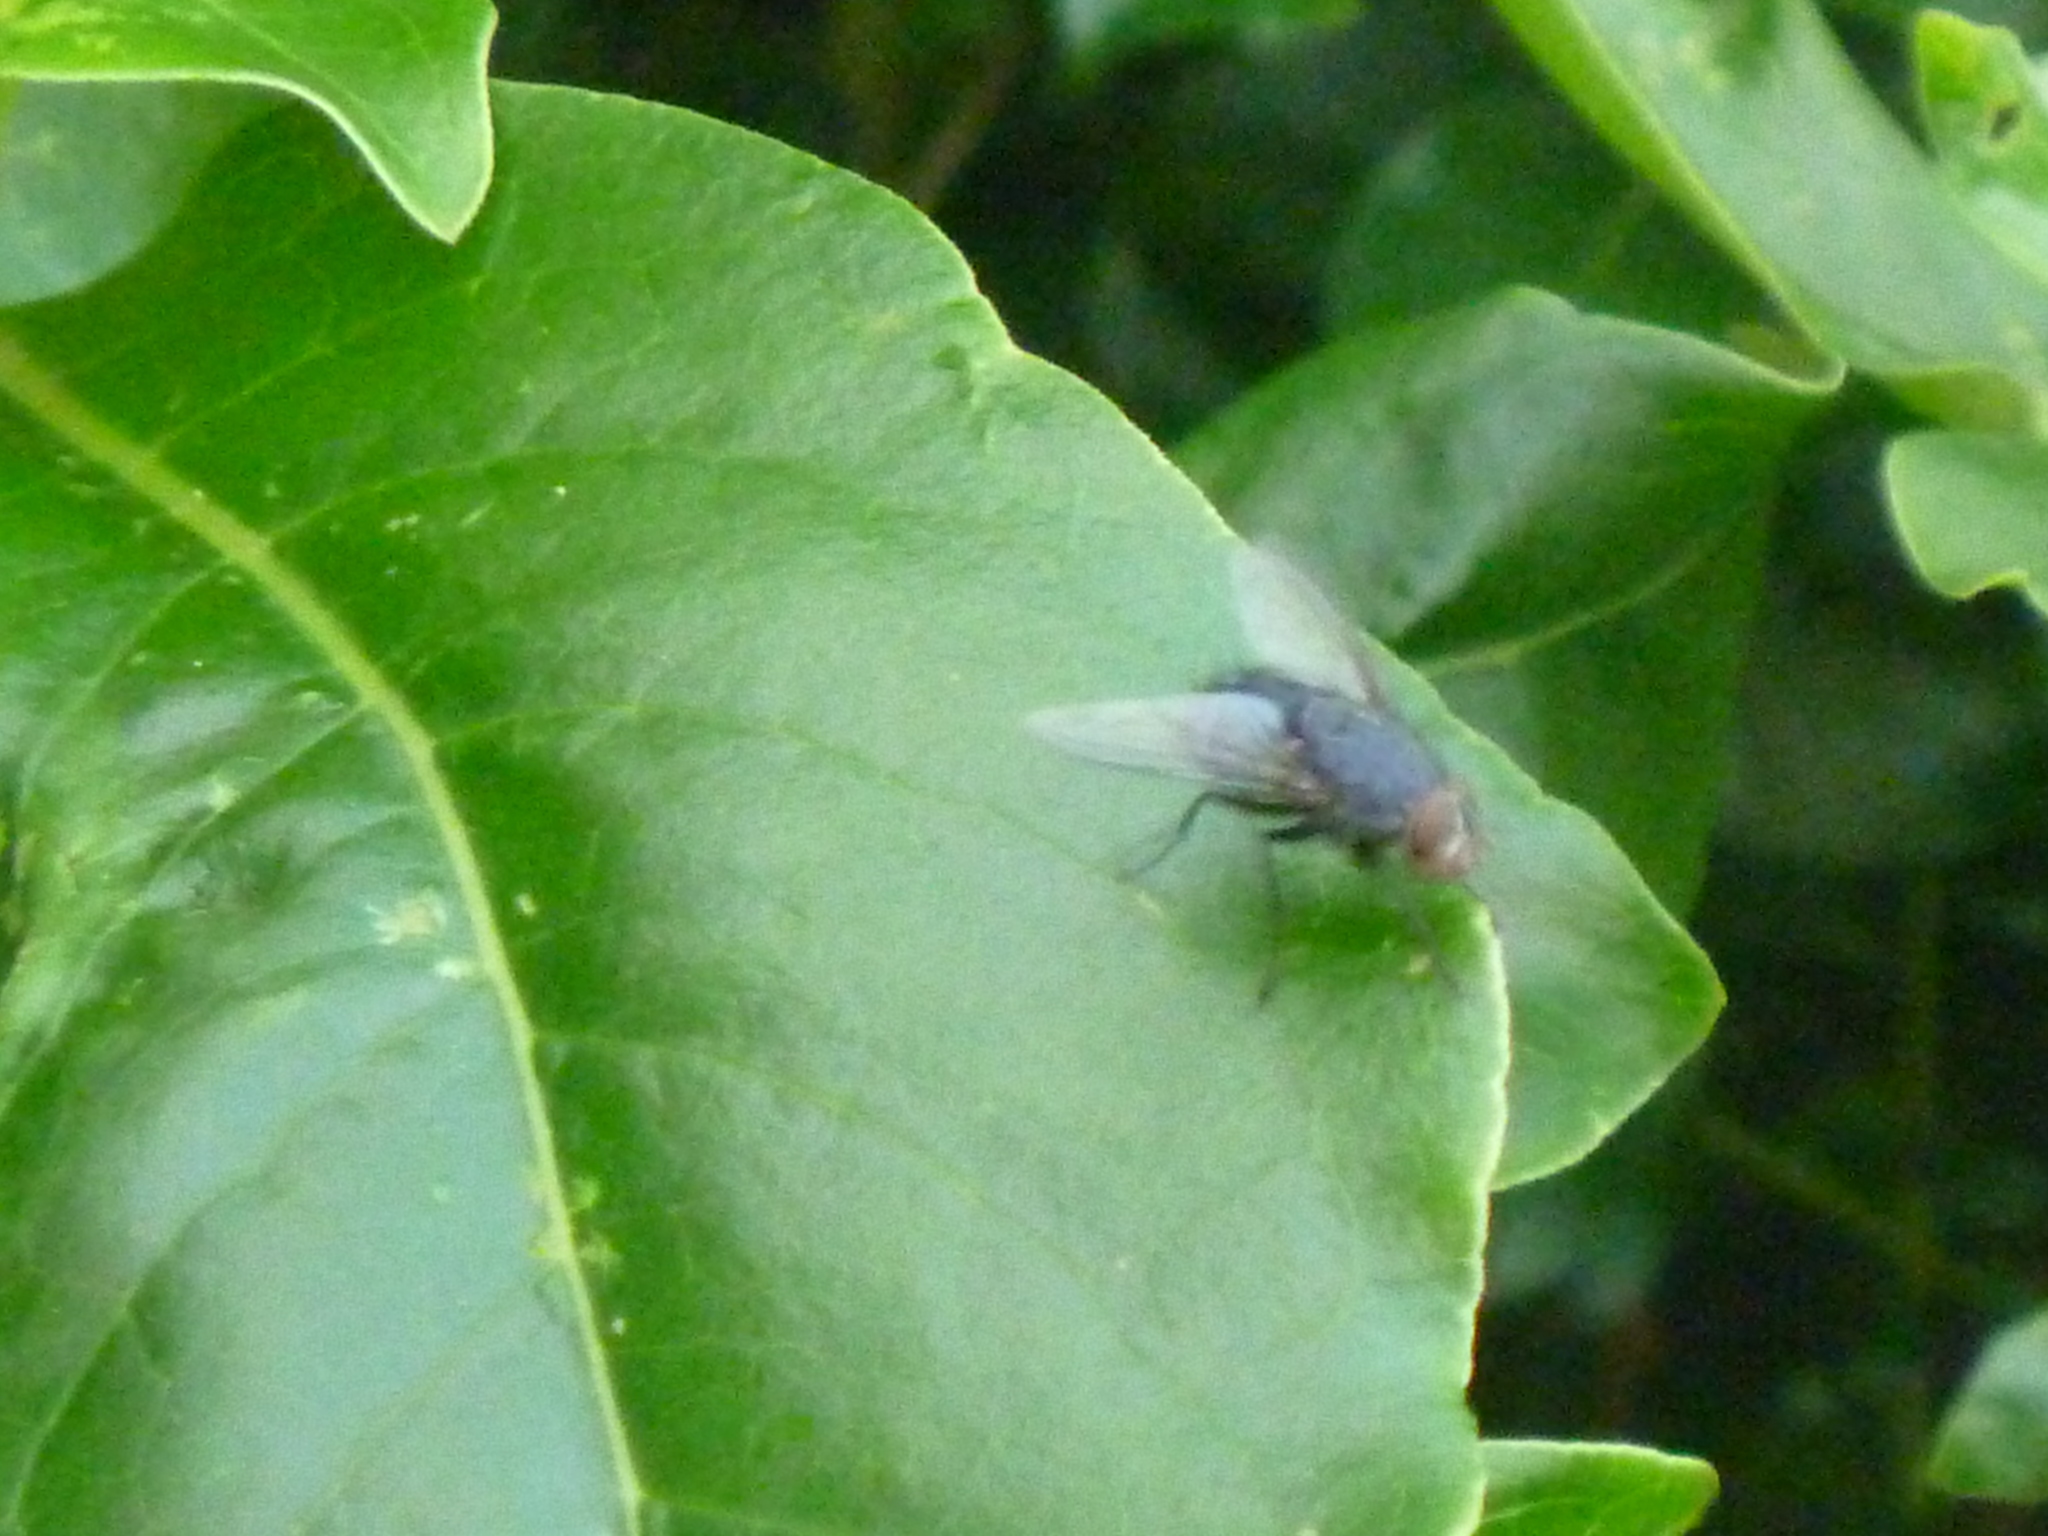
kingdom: Animalia
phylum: Arthropoda
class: Insecta
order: Diptera
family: Calliphoridae
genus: Calliphora
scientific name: Calliphora vicina
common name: Common blow flie
